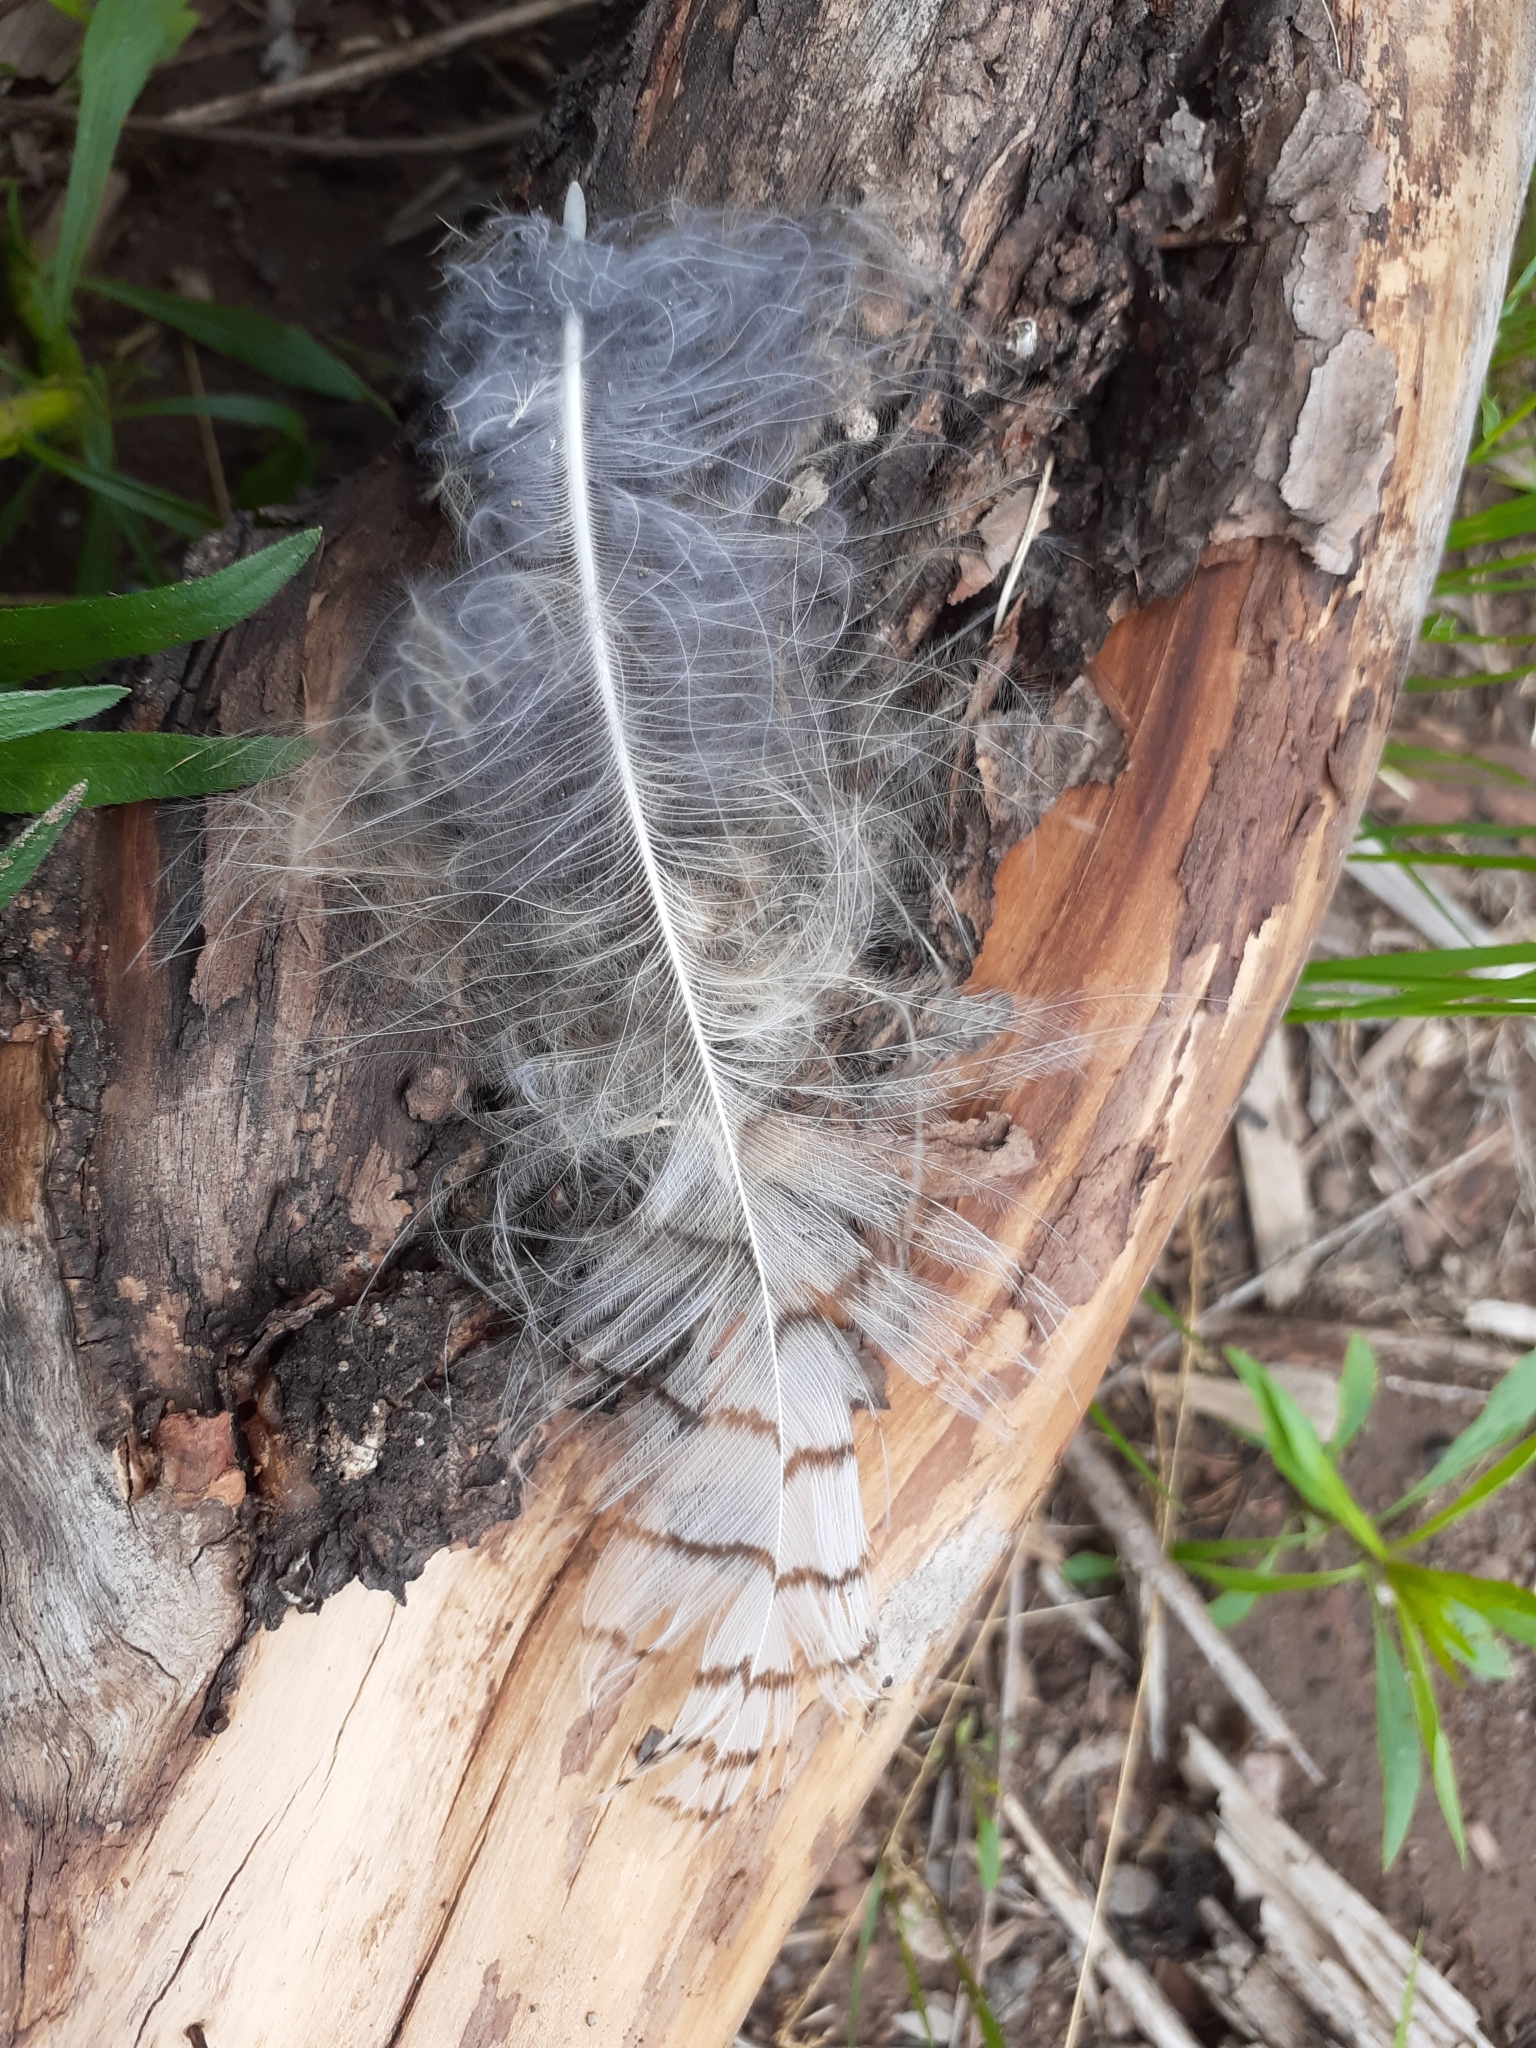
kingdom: Animalia
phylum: Chordata
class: Aves
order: Strigiformes
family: Strigidae
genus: Bubo
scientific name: Bubo virginianus
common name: Great horned owl
